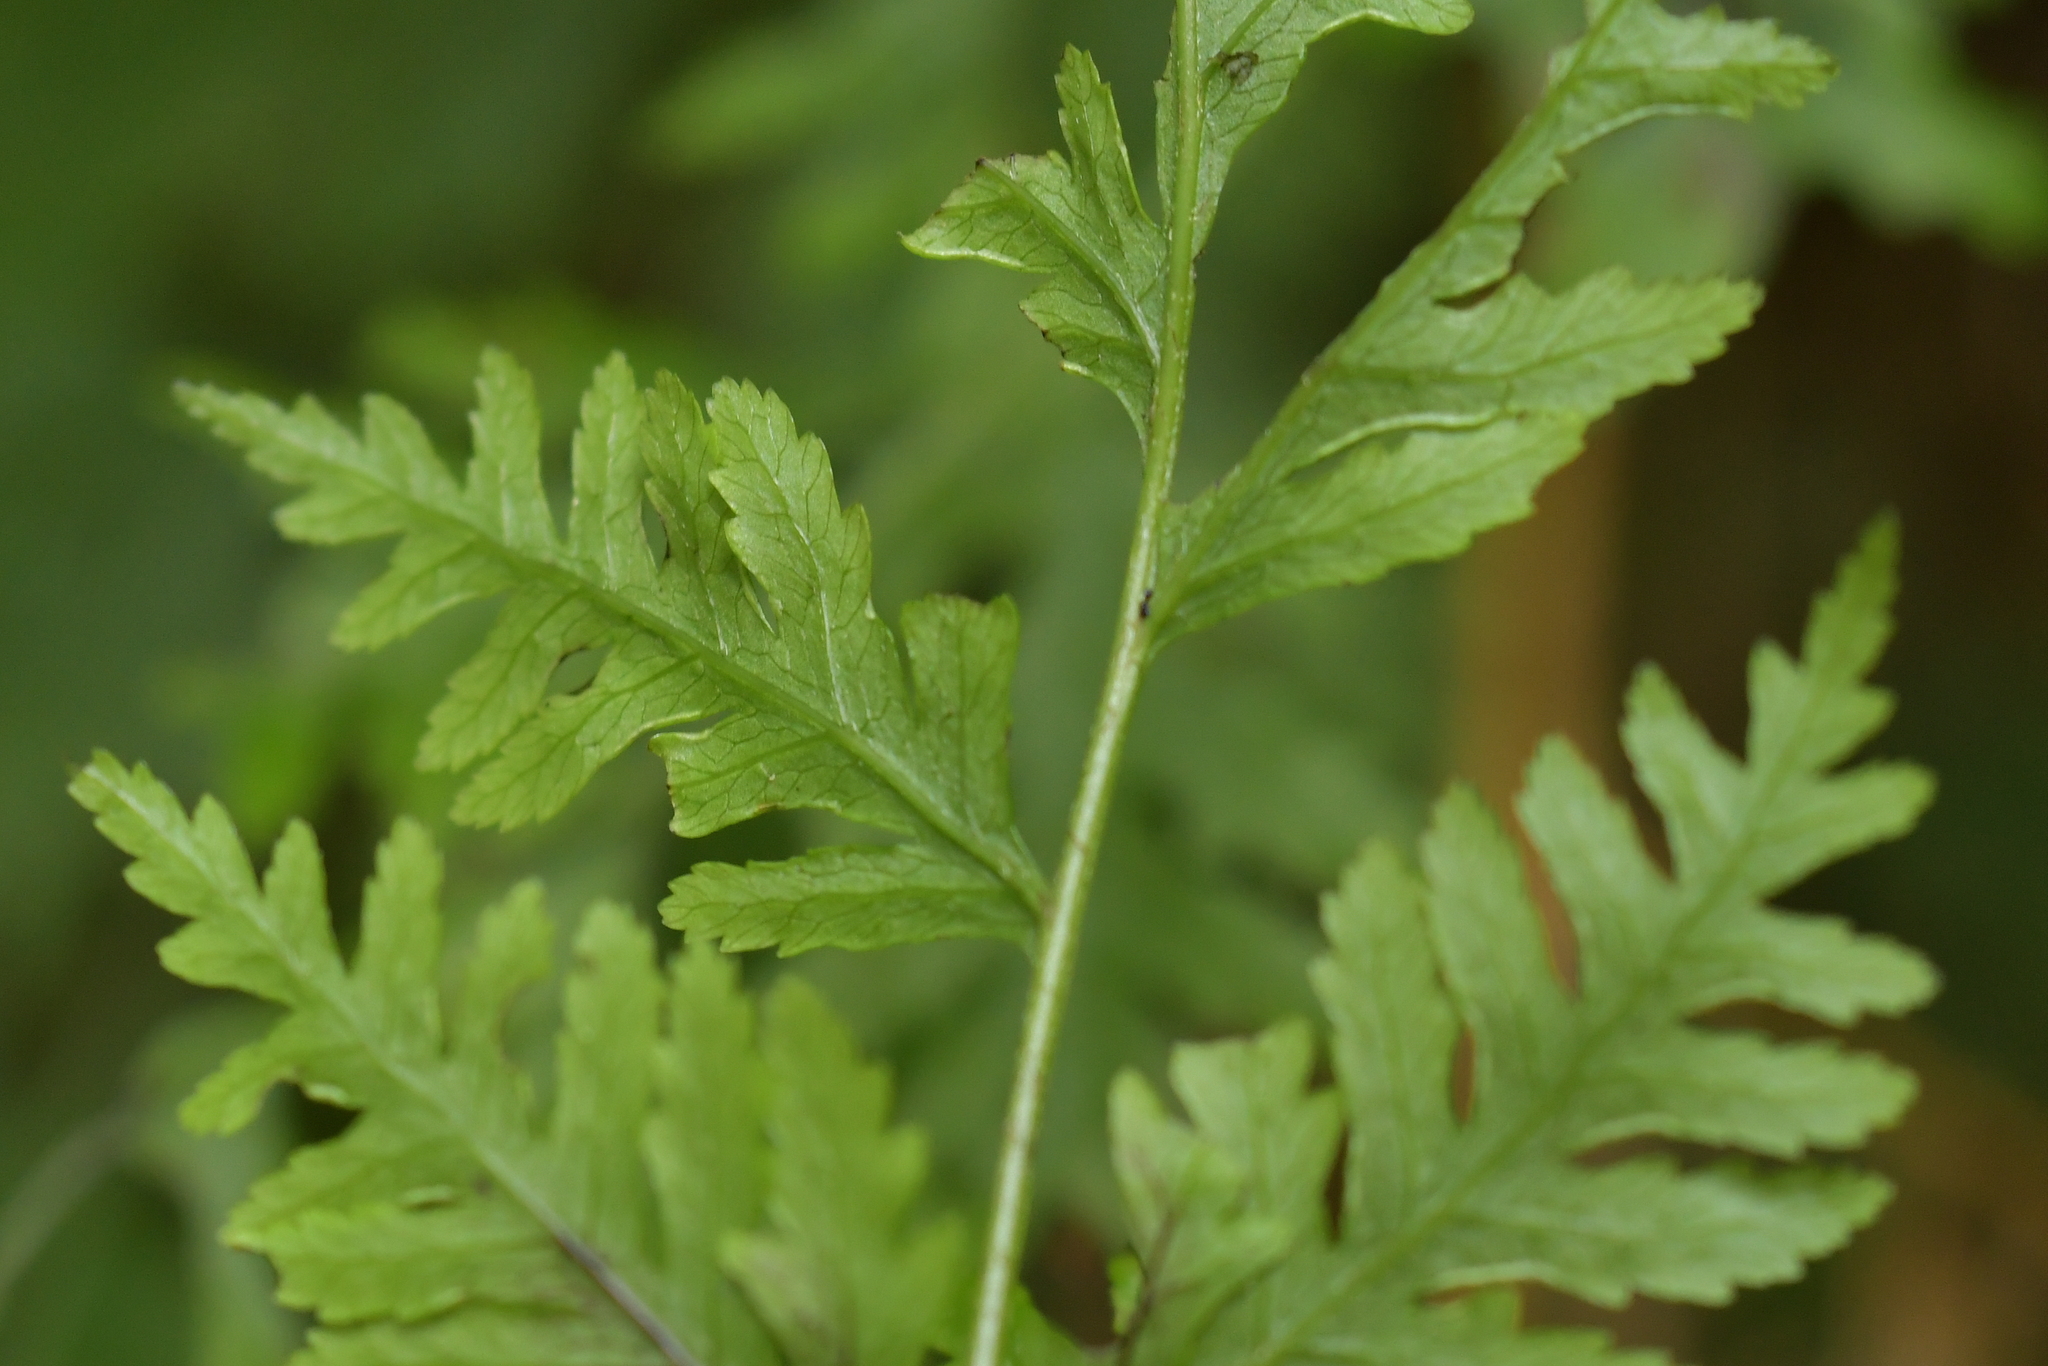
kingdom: Plantae
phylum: Tracheophyta
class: Polypodiopsida
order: Polypodiales
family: Pteridaceae
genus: Pteris
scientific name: Pteris macilenta
